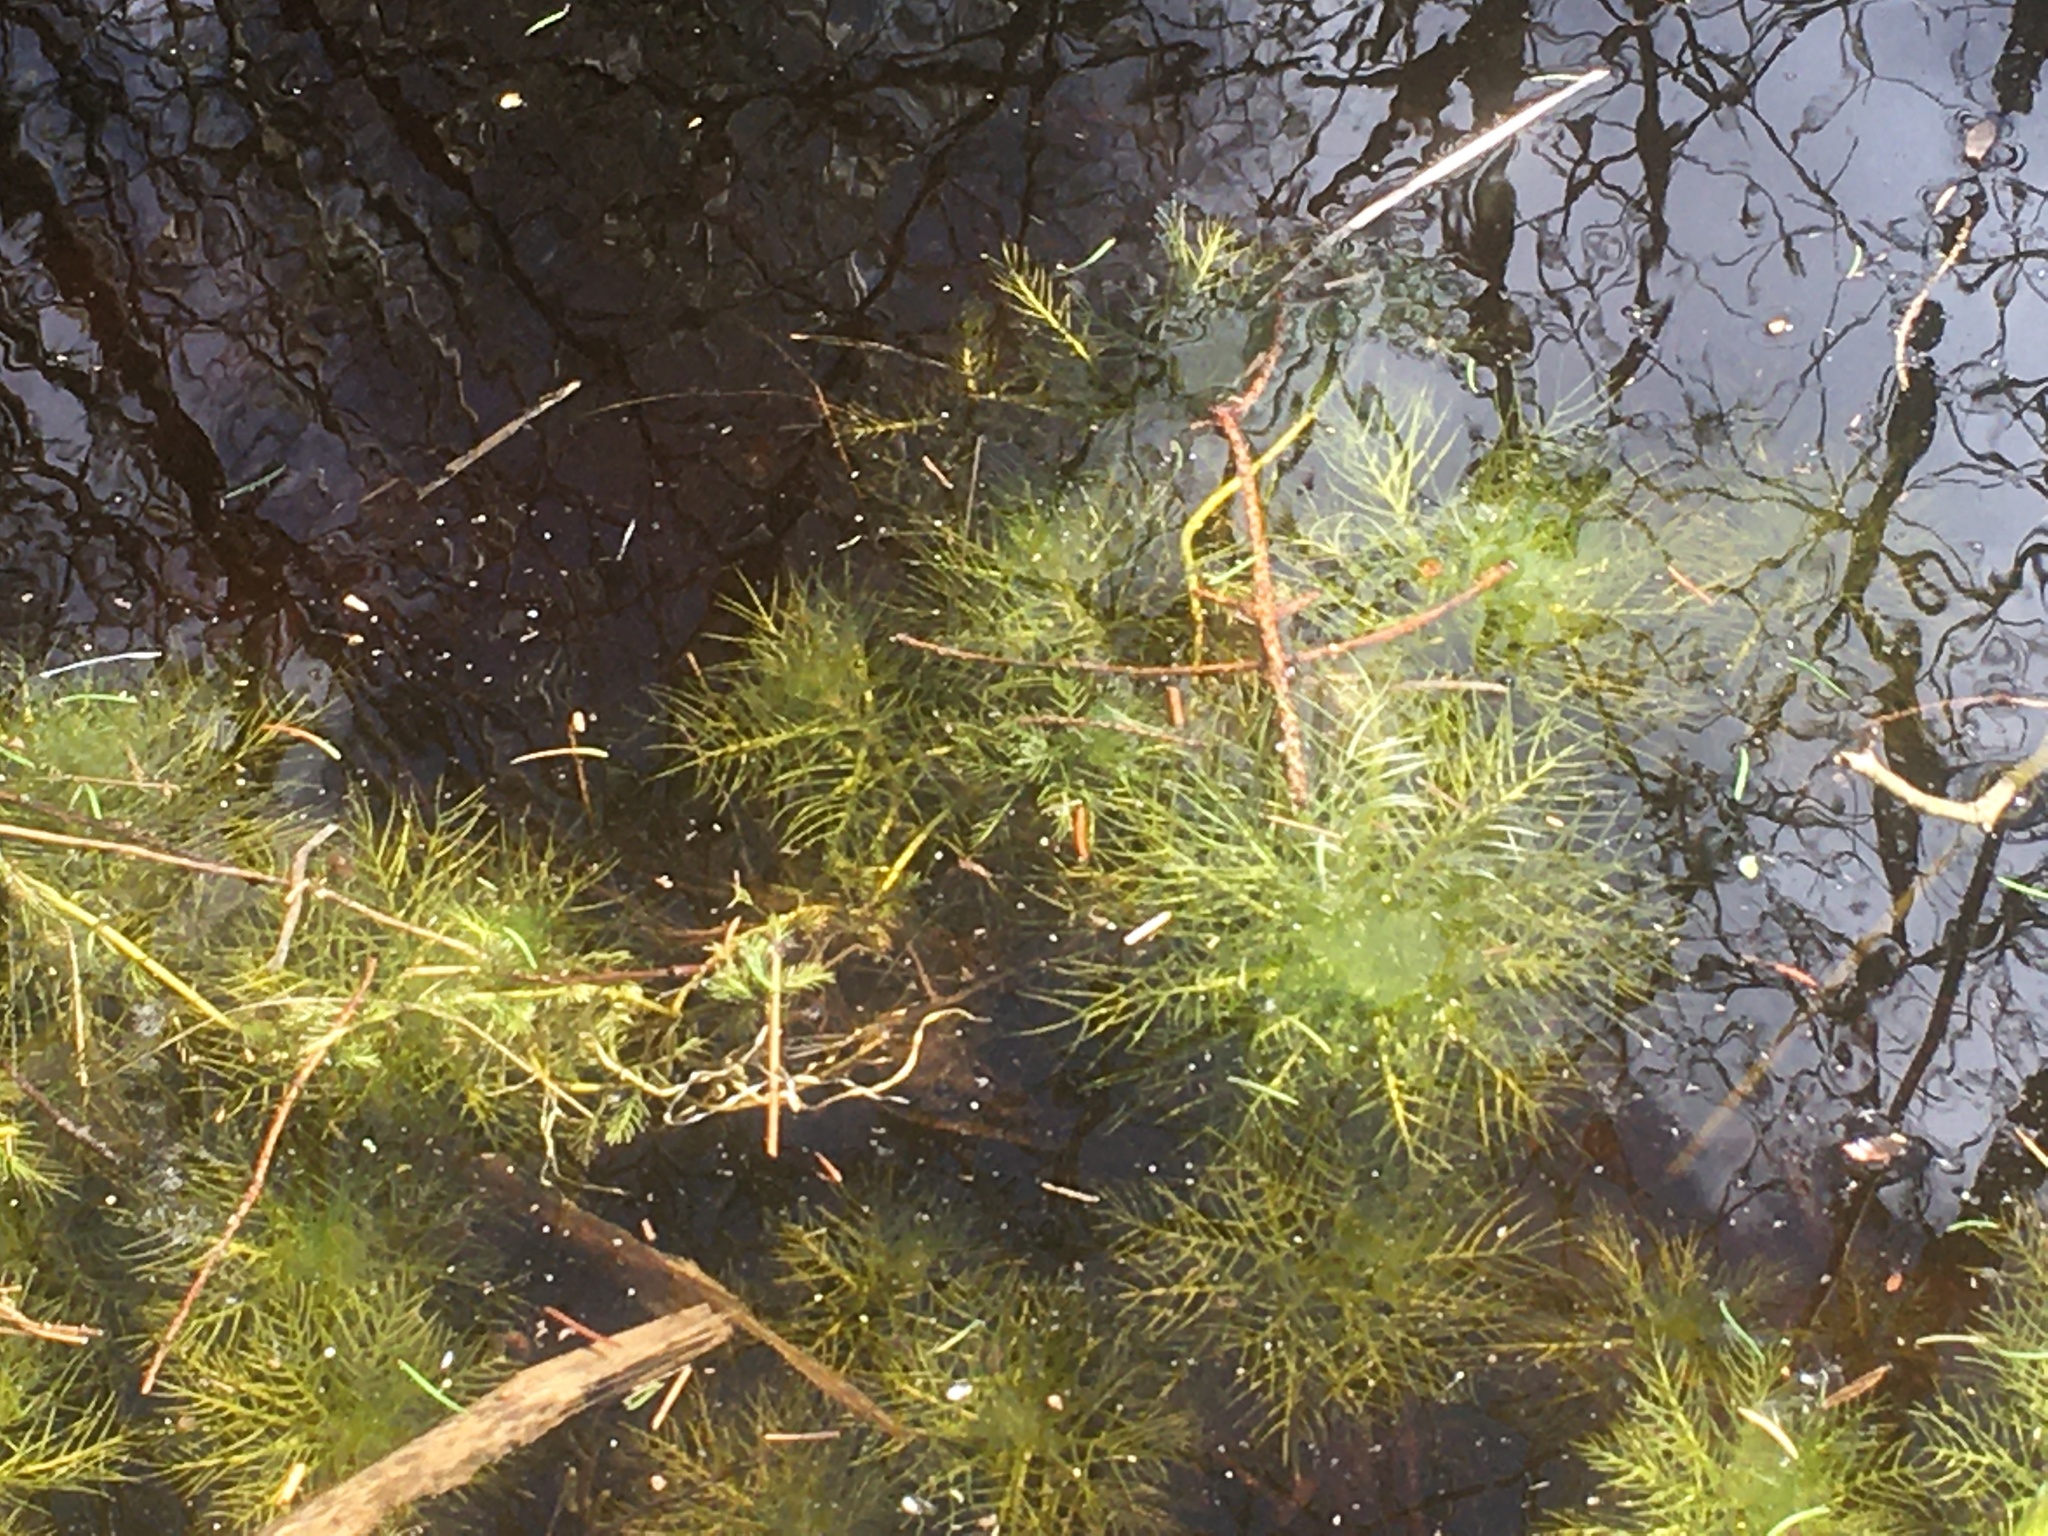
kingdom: Plantae
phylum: Tracheophyta
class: Magnoliopsida
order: Ericales
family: Primulaceae
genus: Hottonia
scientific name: Hottonia palustris
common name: Water-violet
